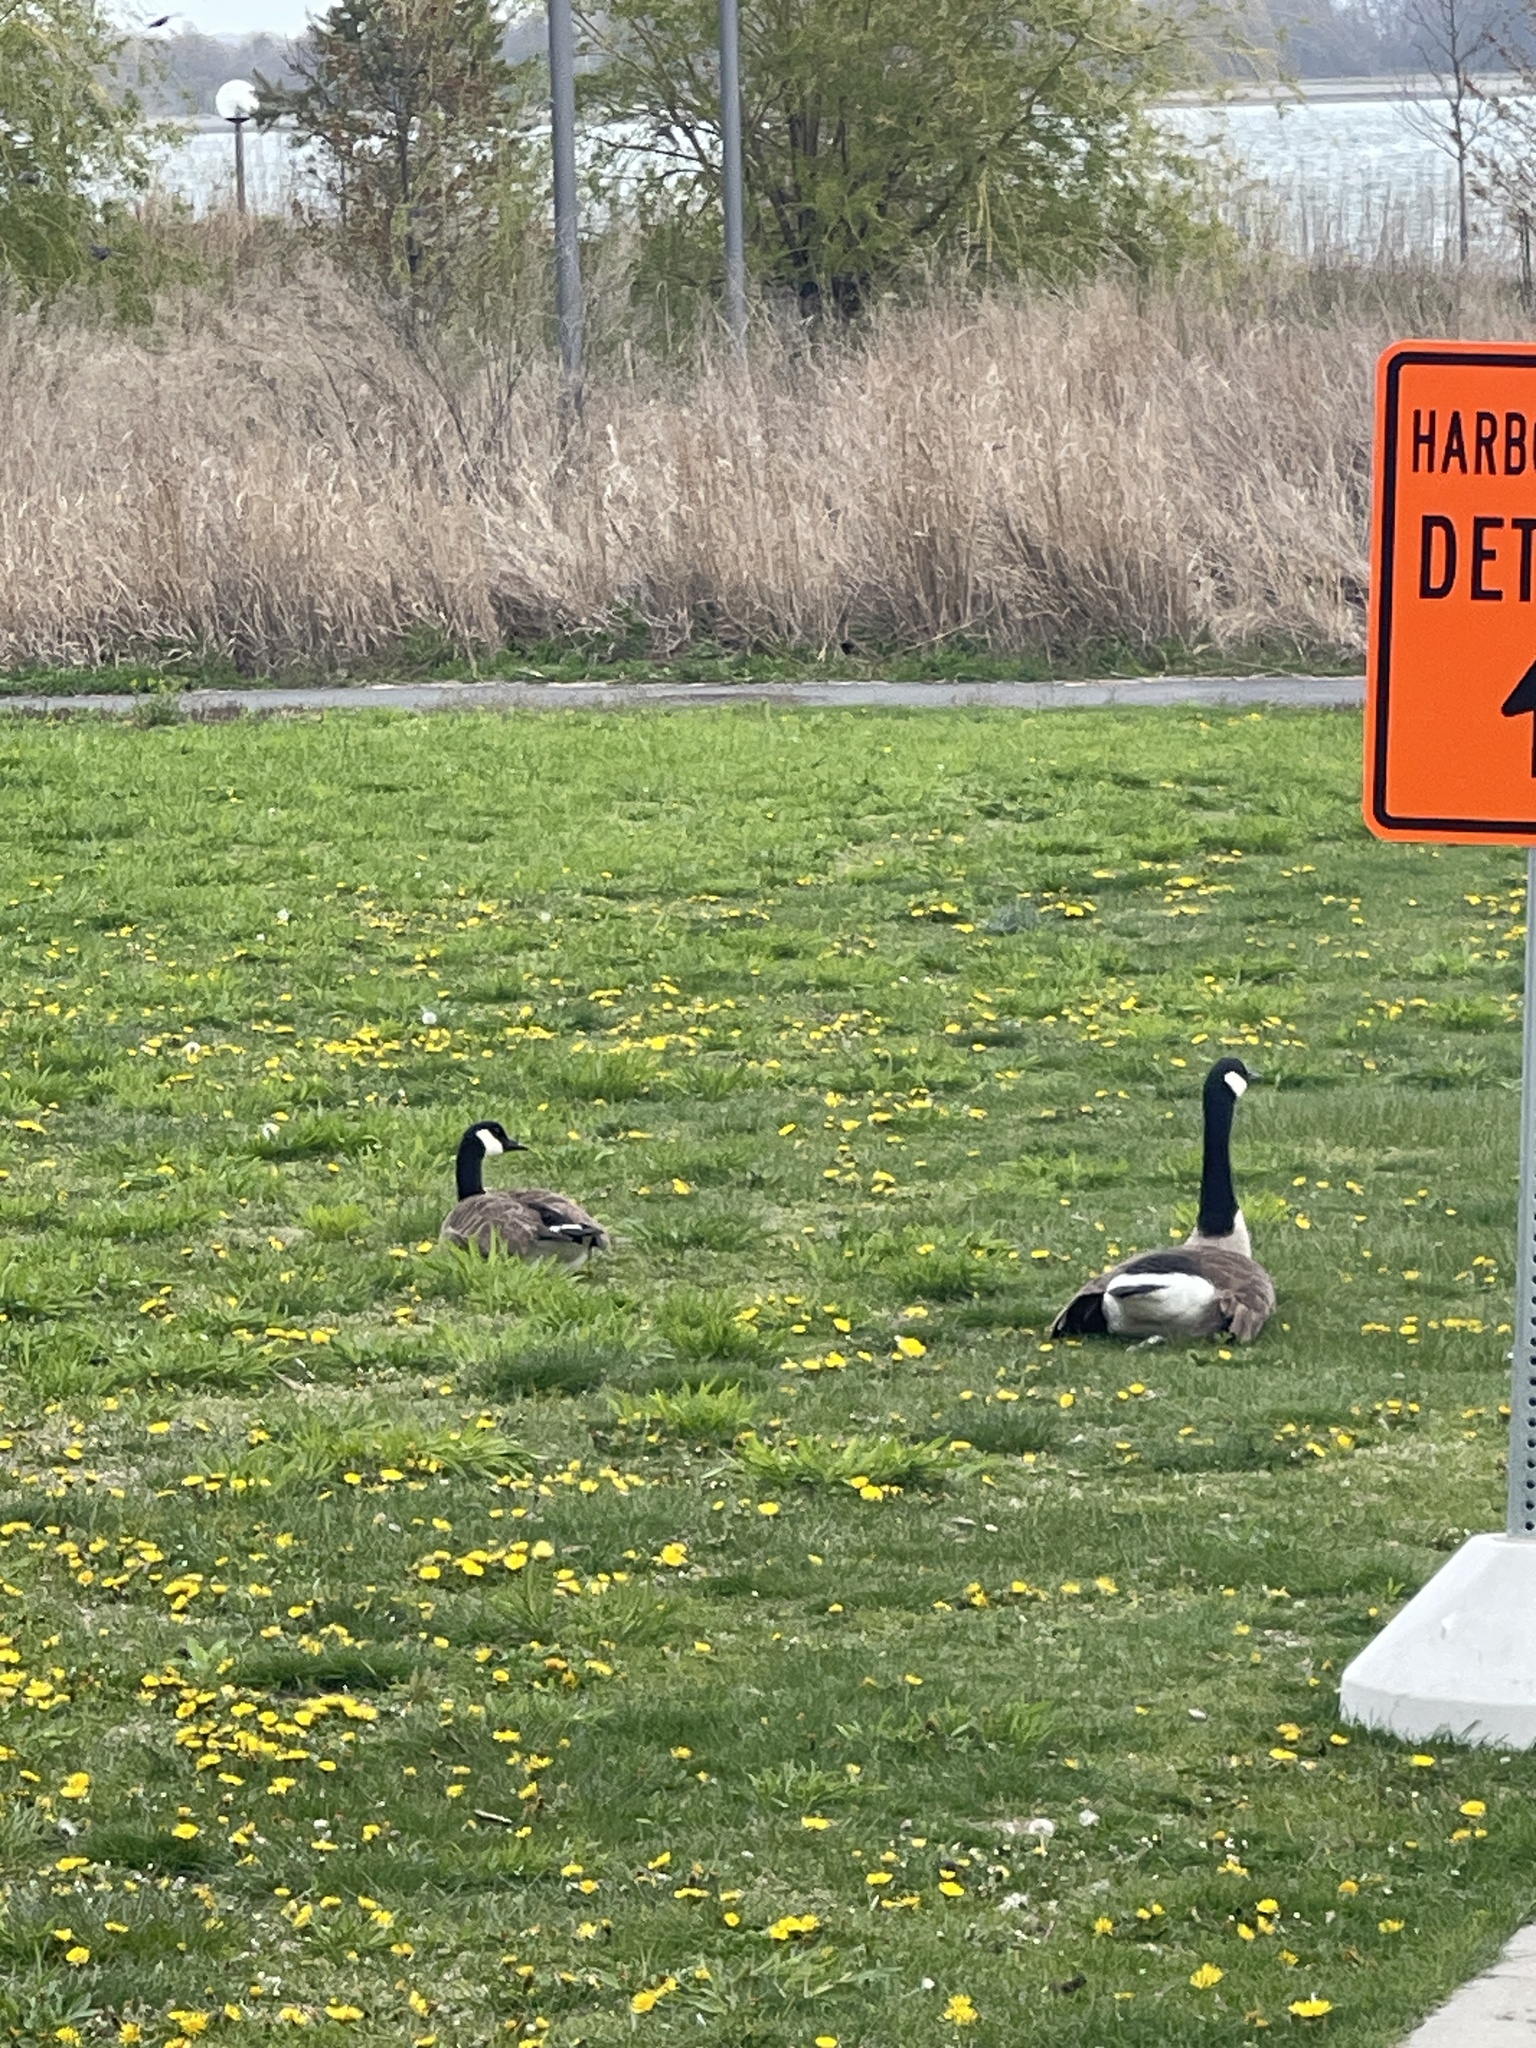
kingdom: Animalia
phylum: Chordata
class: Aves
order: Anseriformes
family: Anatidae
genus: Branta
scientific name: Branta canadensis
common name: Canada goose
